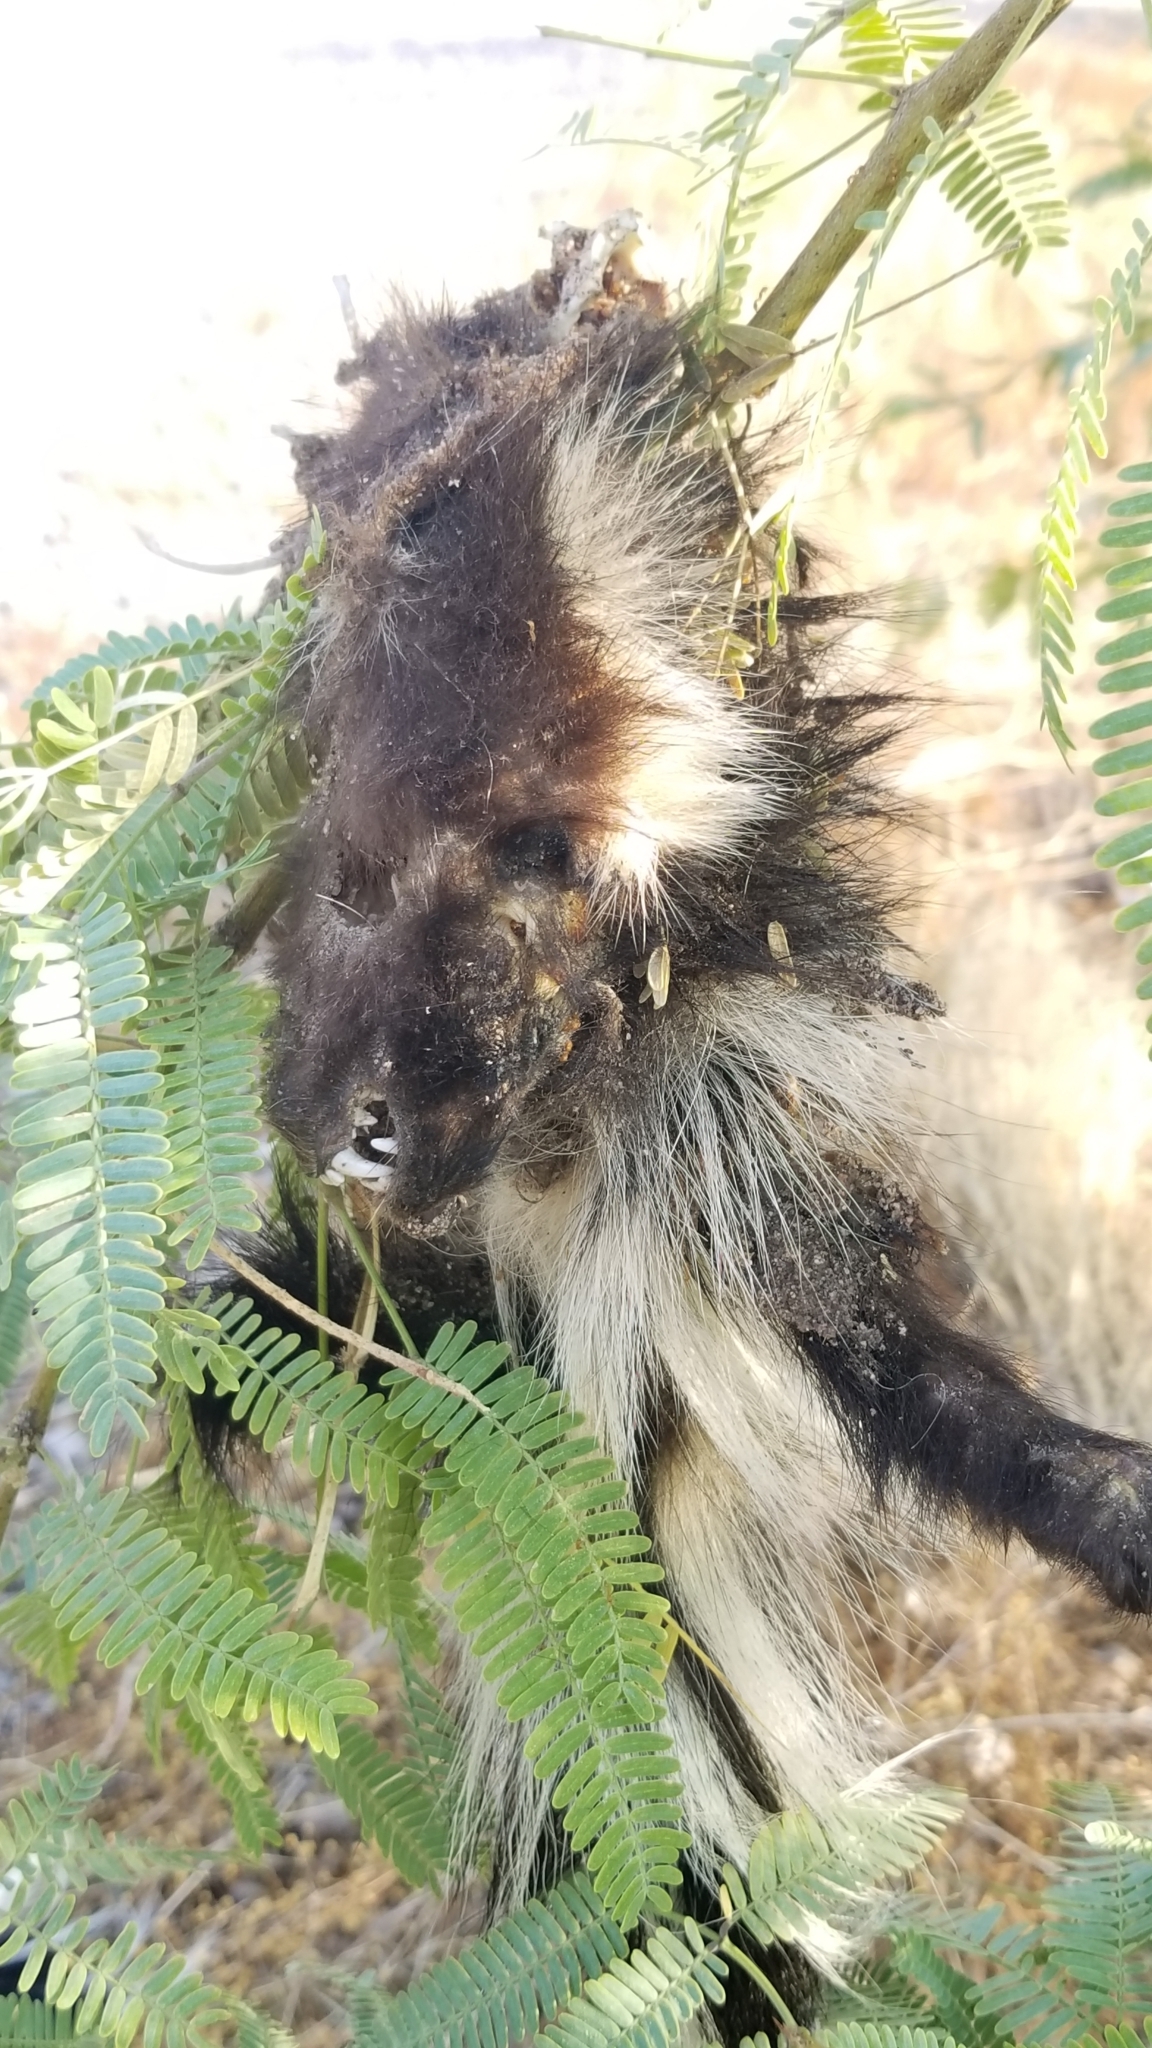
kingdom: Animalia
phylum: Chordata
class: Mammalia
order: Carnivora
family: Mephitidae
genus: Mephitis
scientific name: Mephitis mephitis
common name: Striped skunk
